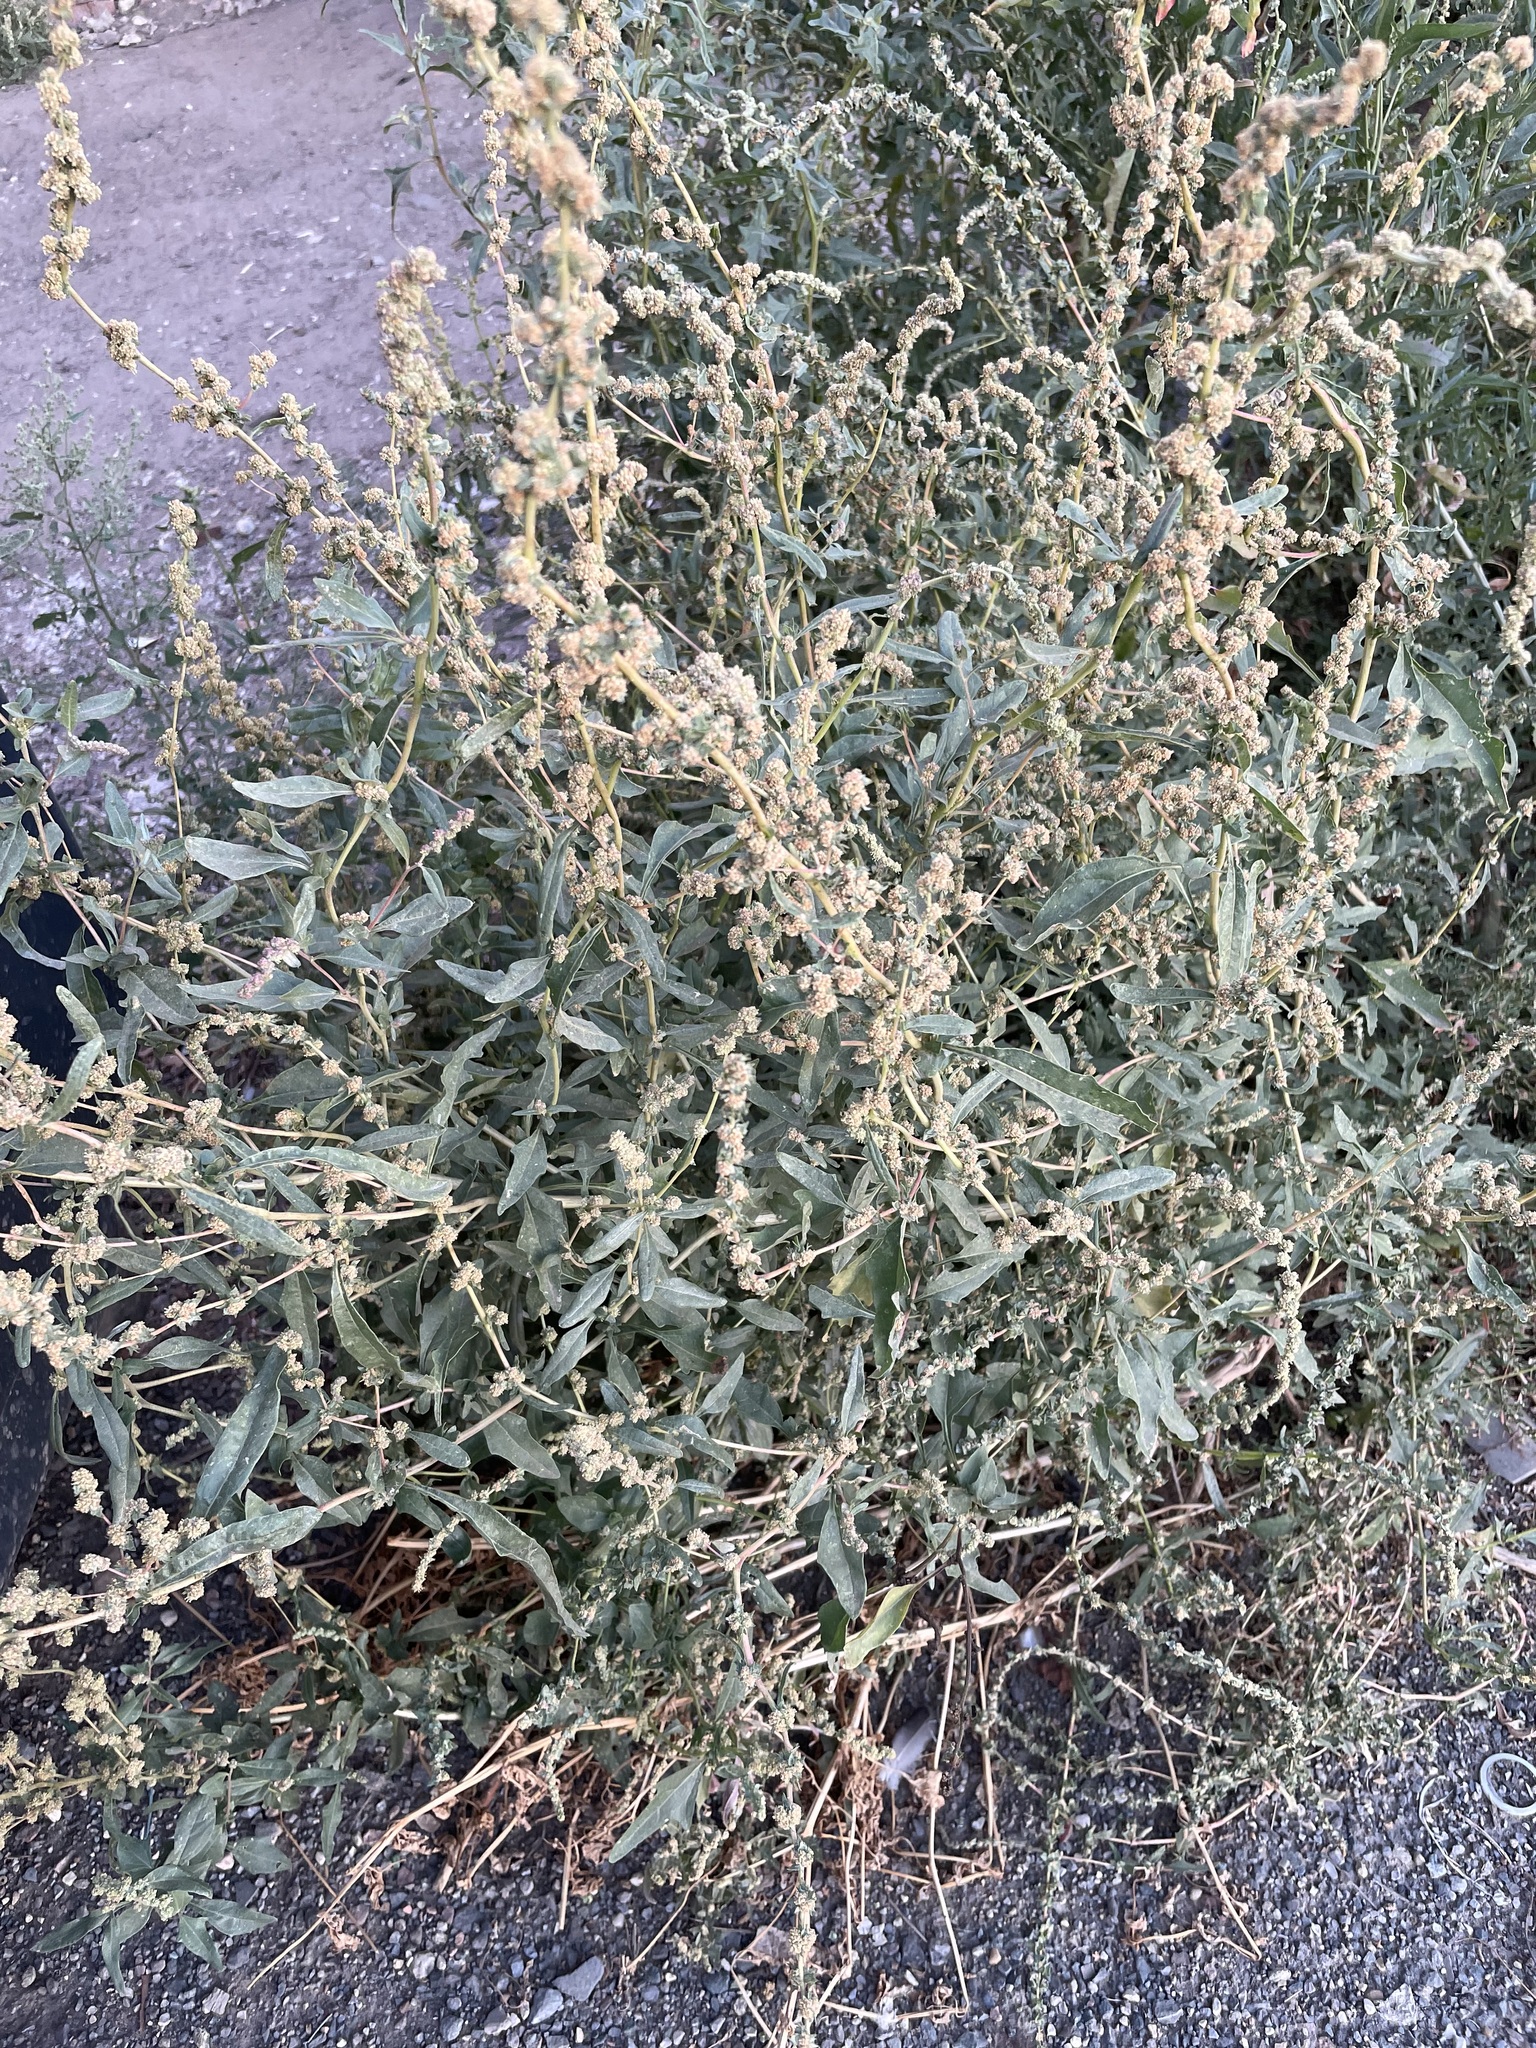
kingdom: Plantae
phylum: Tracheophyta
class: Magnoliopsida
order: Caryophyllales
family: Amaranthaceae
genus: Atriplex
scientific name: Atriplex tatarica
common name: Tatarian orache
